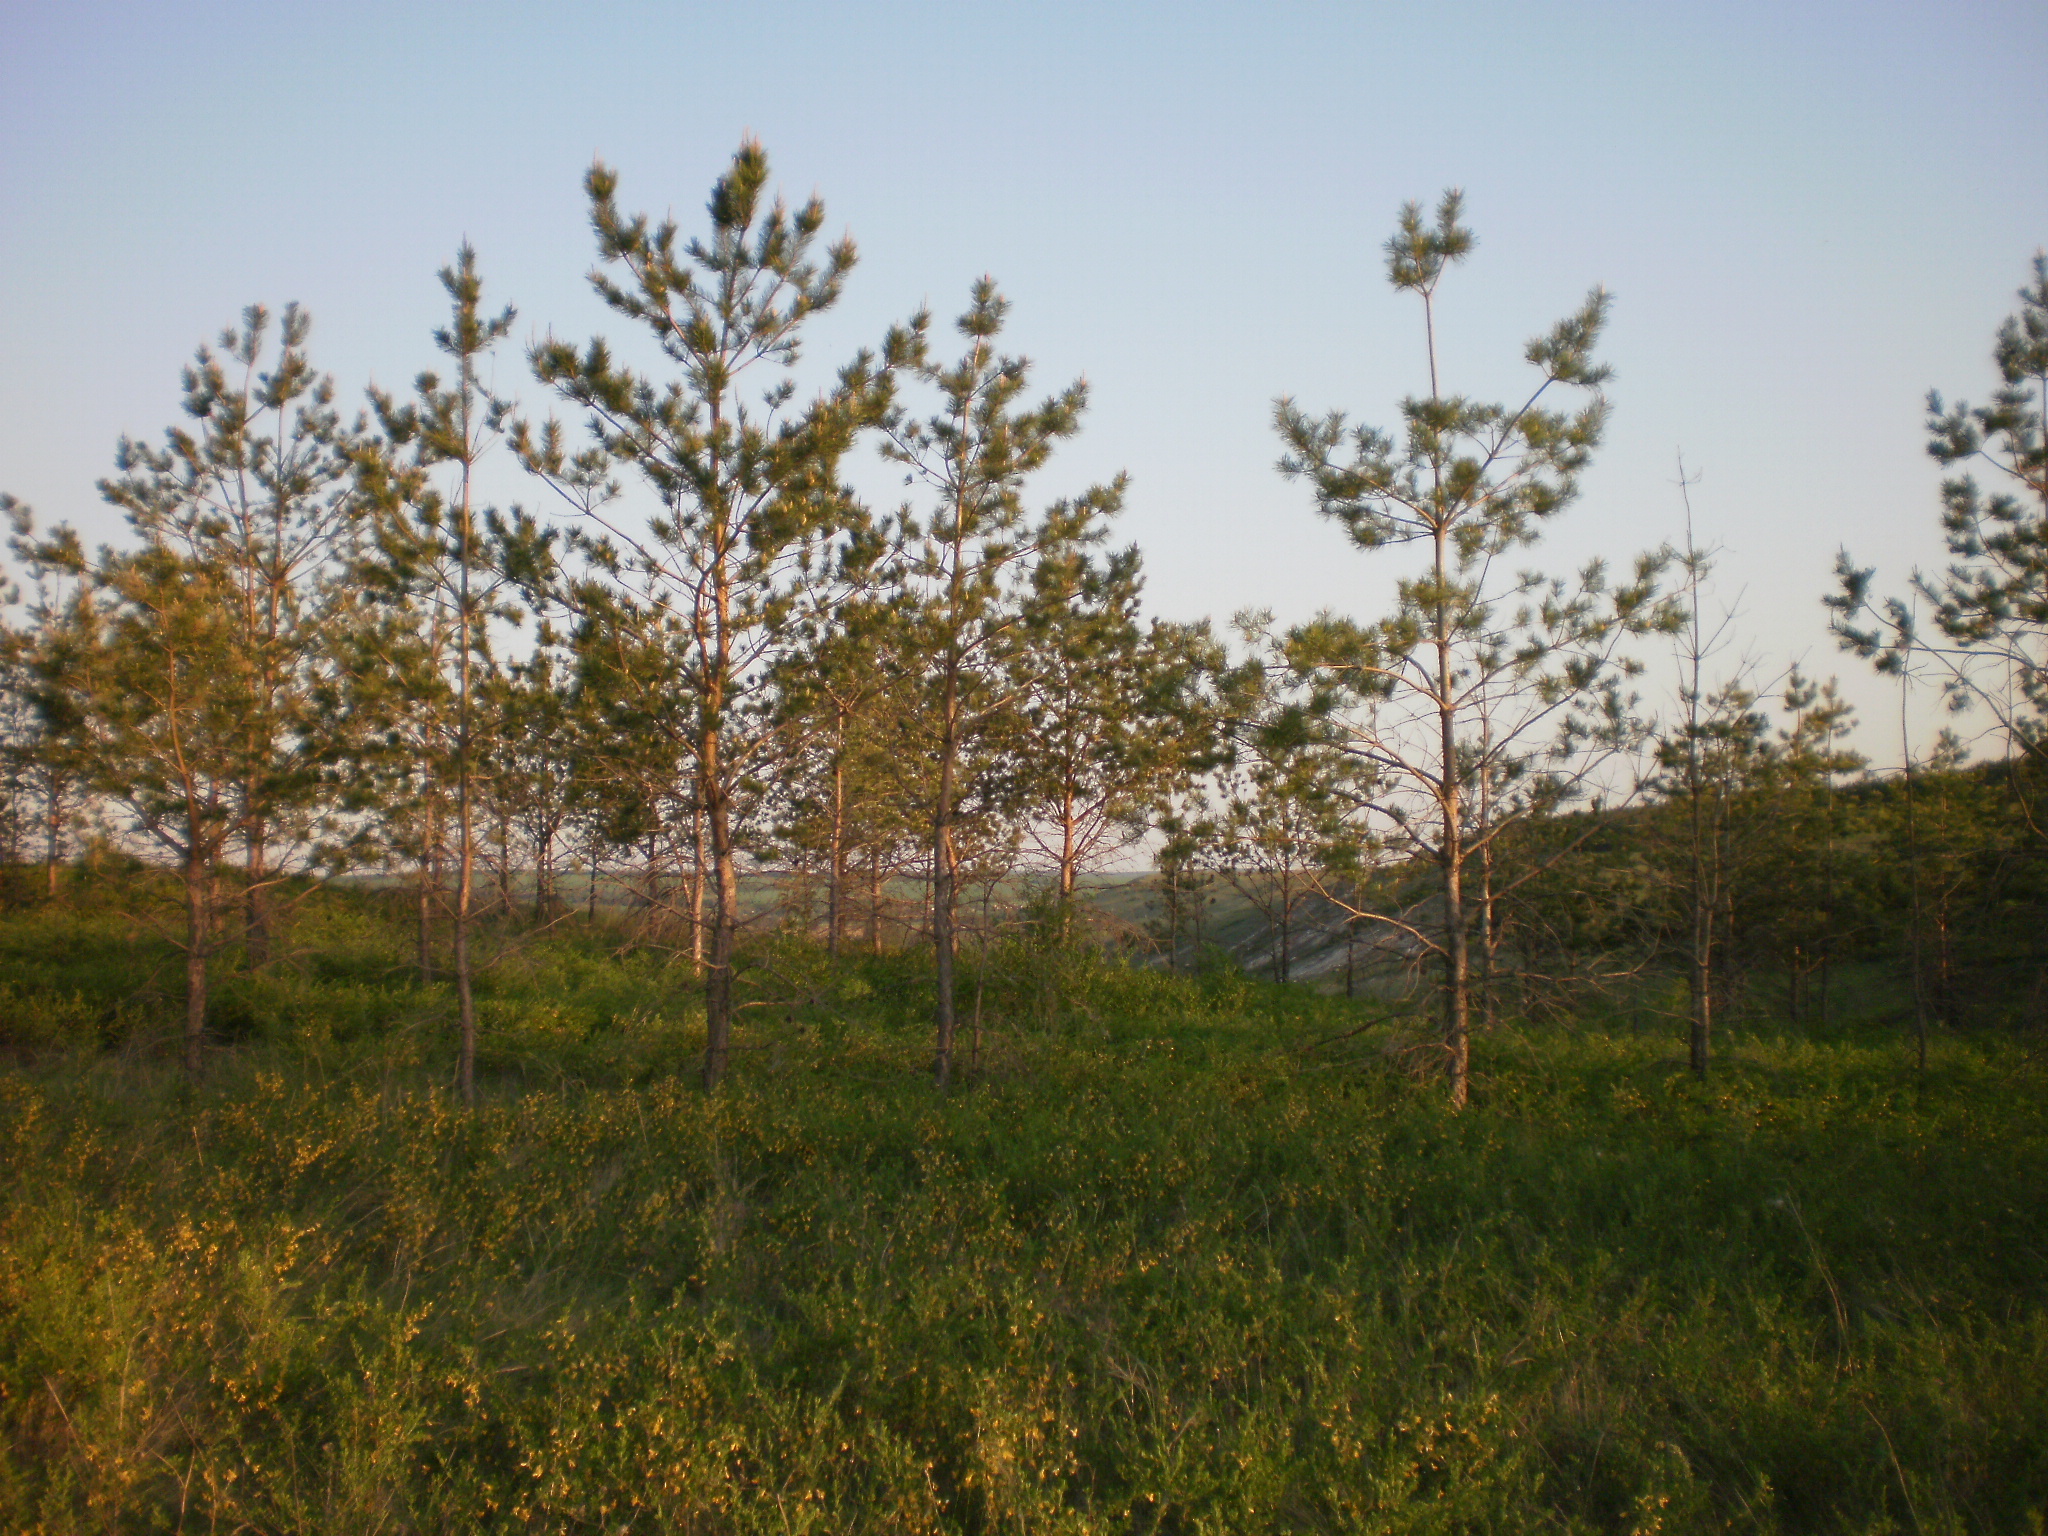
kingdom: Plantae
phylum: Tracheophyta
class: Pinopsida
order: Pinales
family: Pinaceae
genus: Pinus
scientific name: Pinus sylvestris
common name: Scots pine
